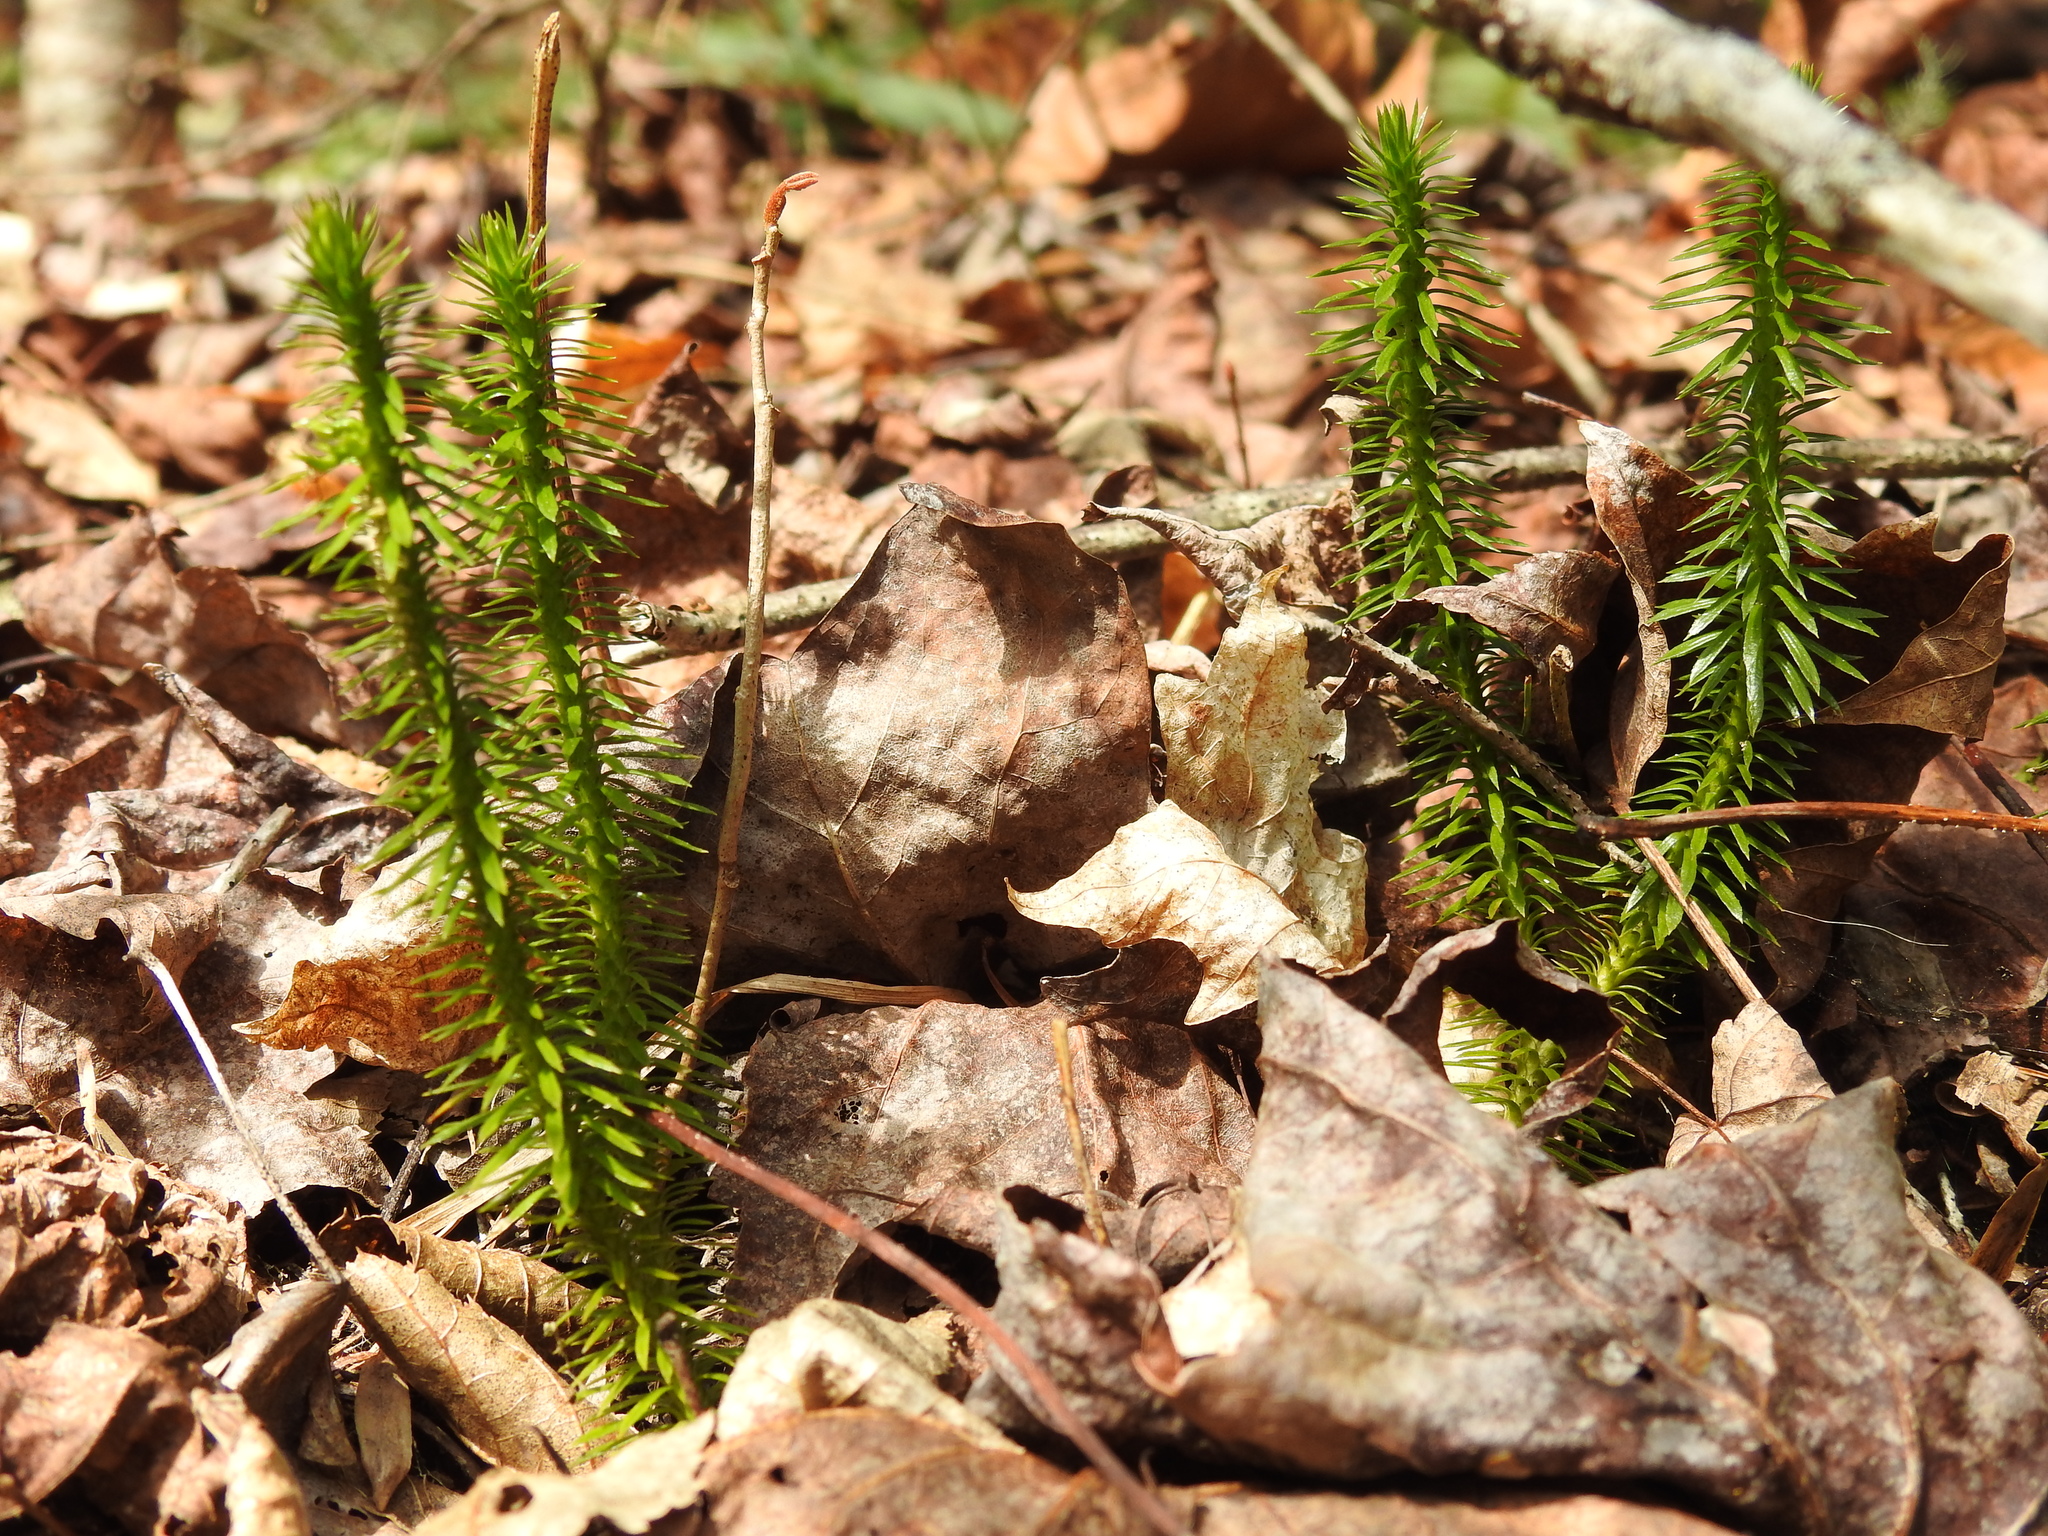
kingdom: Plantae
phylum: Tracheophyta
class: Lycopodiopsida
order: Lycopodiales
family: Lycopodiaceae
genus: Huperzia
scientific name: Huperzia lucidula
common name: Shining clubmoss
